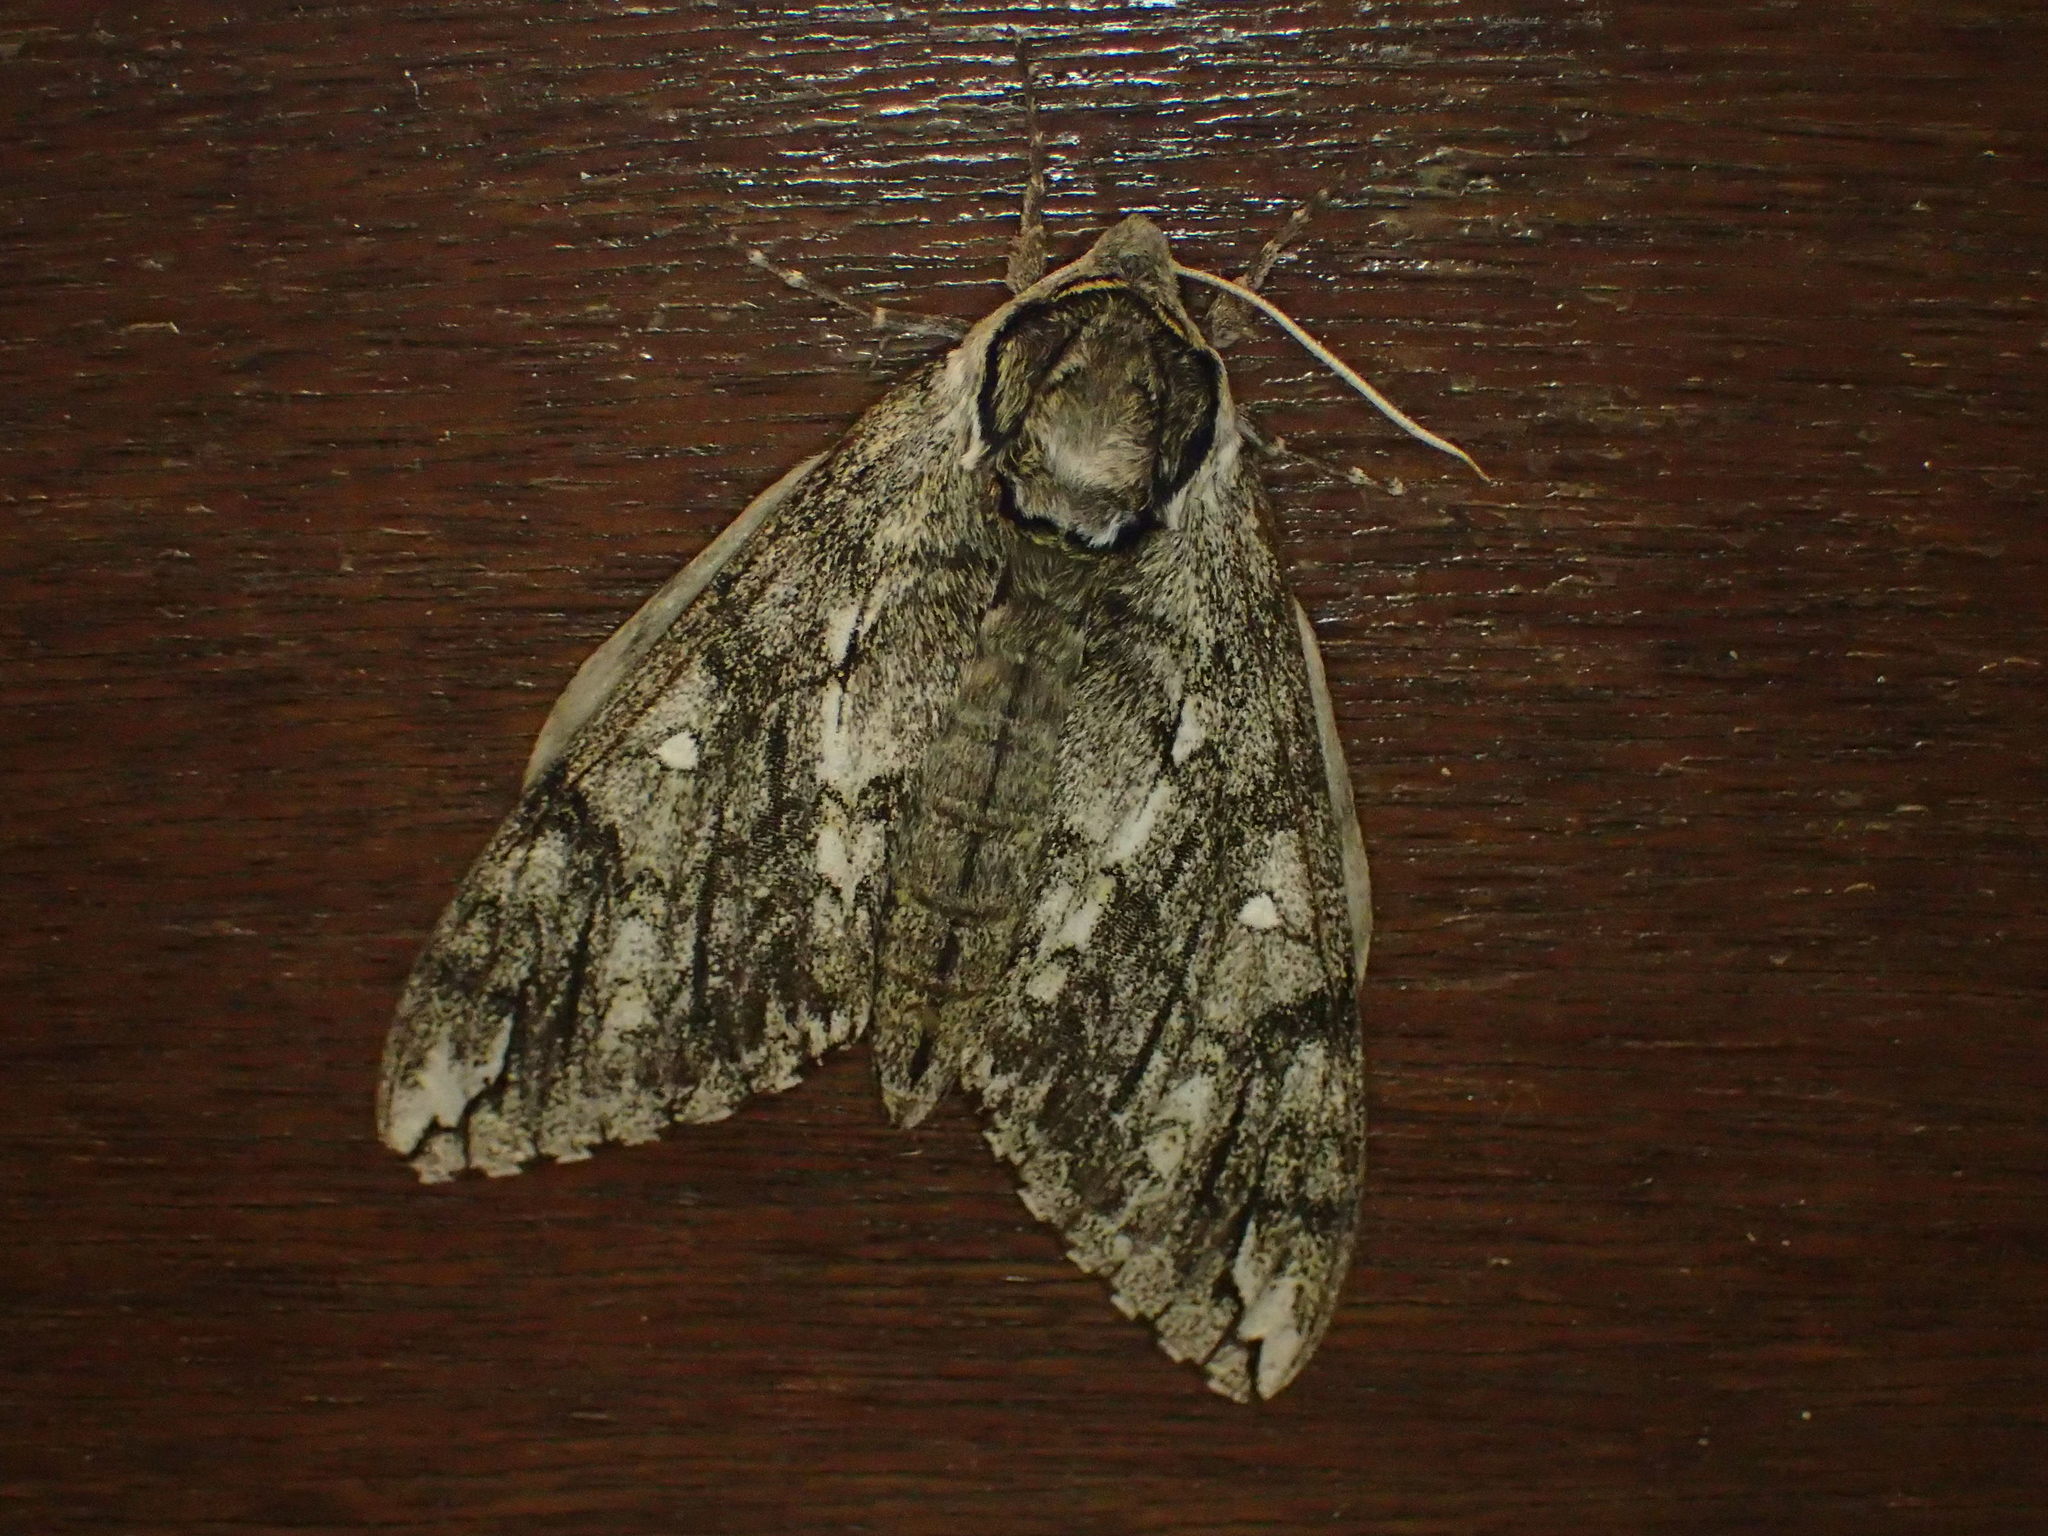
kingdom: Animalia
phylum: Arthropoda
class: Insecta
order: Lepidoptera
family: Sphingidae
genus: Ceratomia
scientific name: Ceratomia undulosa
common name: Waved sphinx
